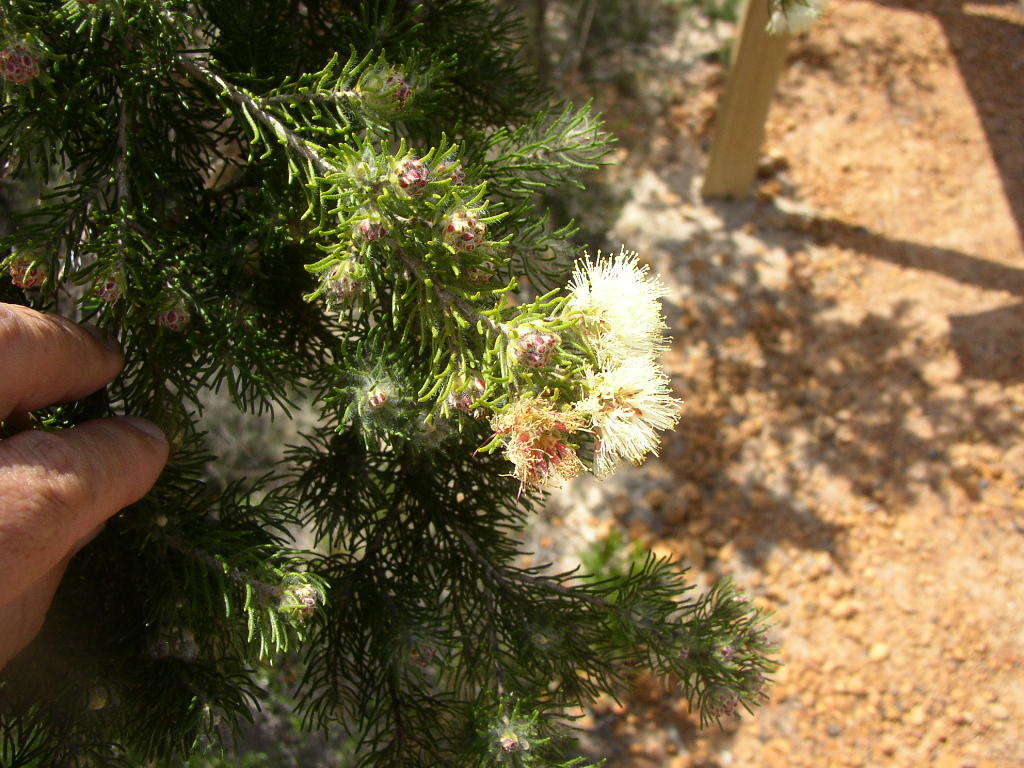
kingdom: Plantae
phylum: Tracheophyta
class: Magnoliopsida
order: Myrtales
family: Myrtaceae
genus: Melaleuca
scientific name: Melaleuca systena
